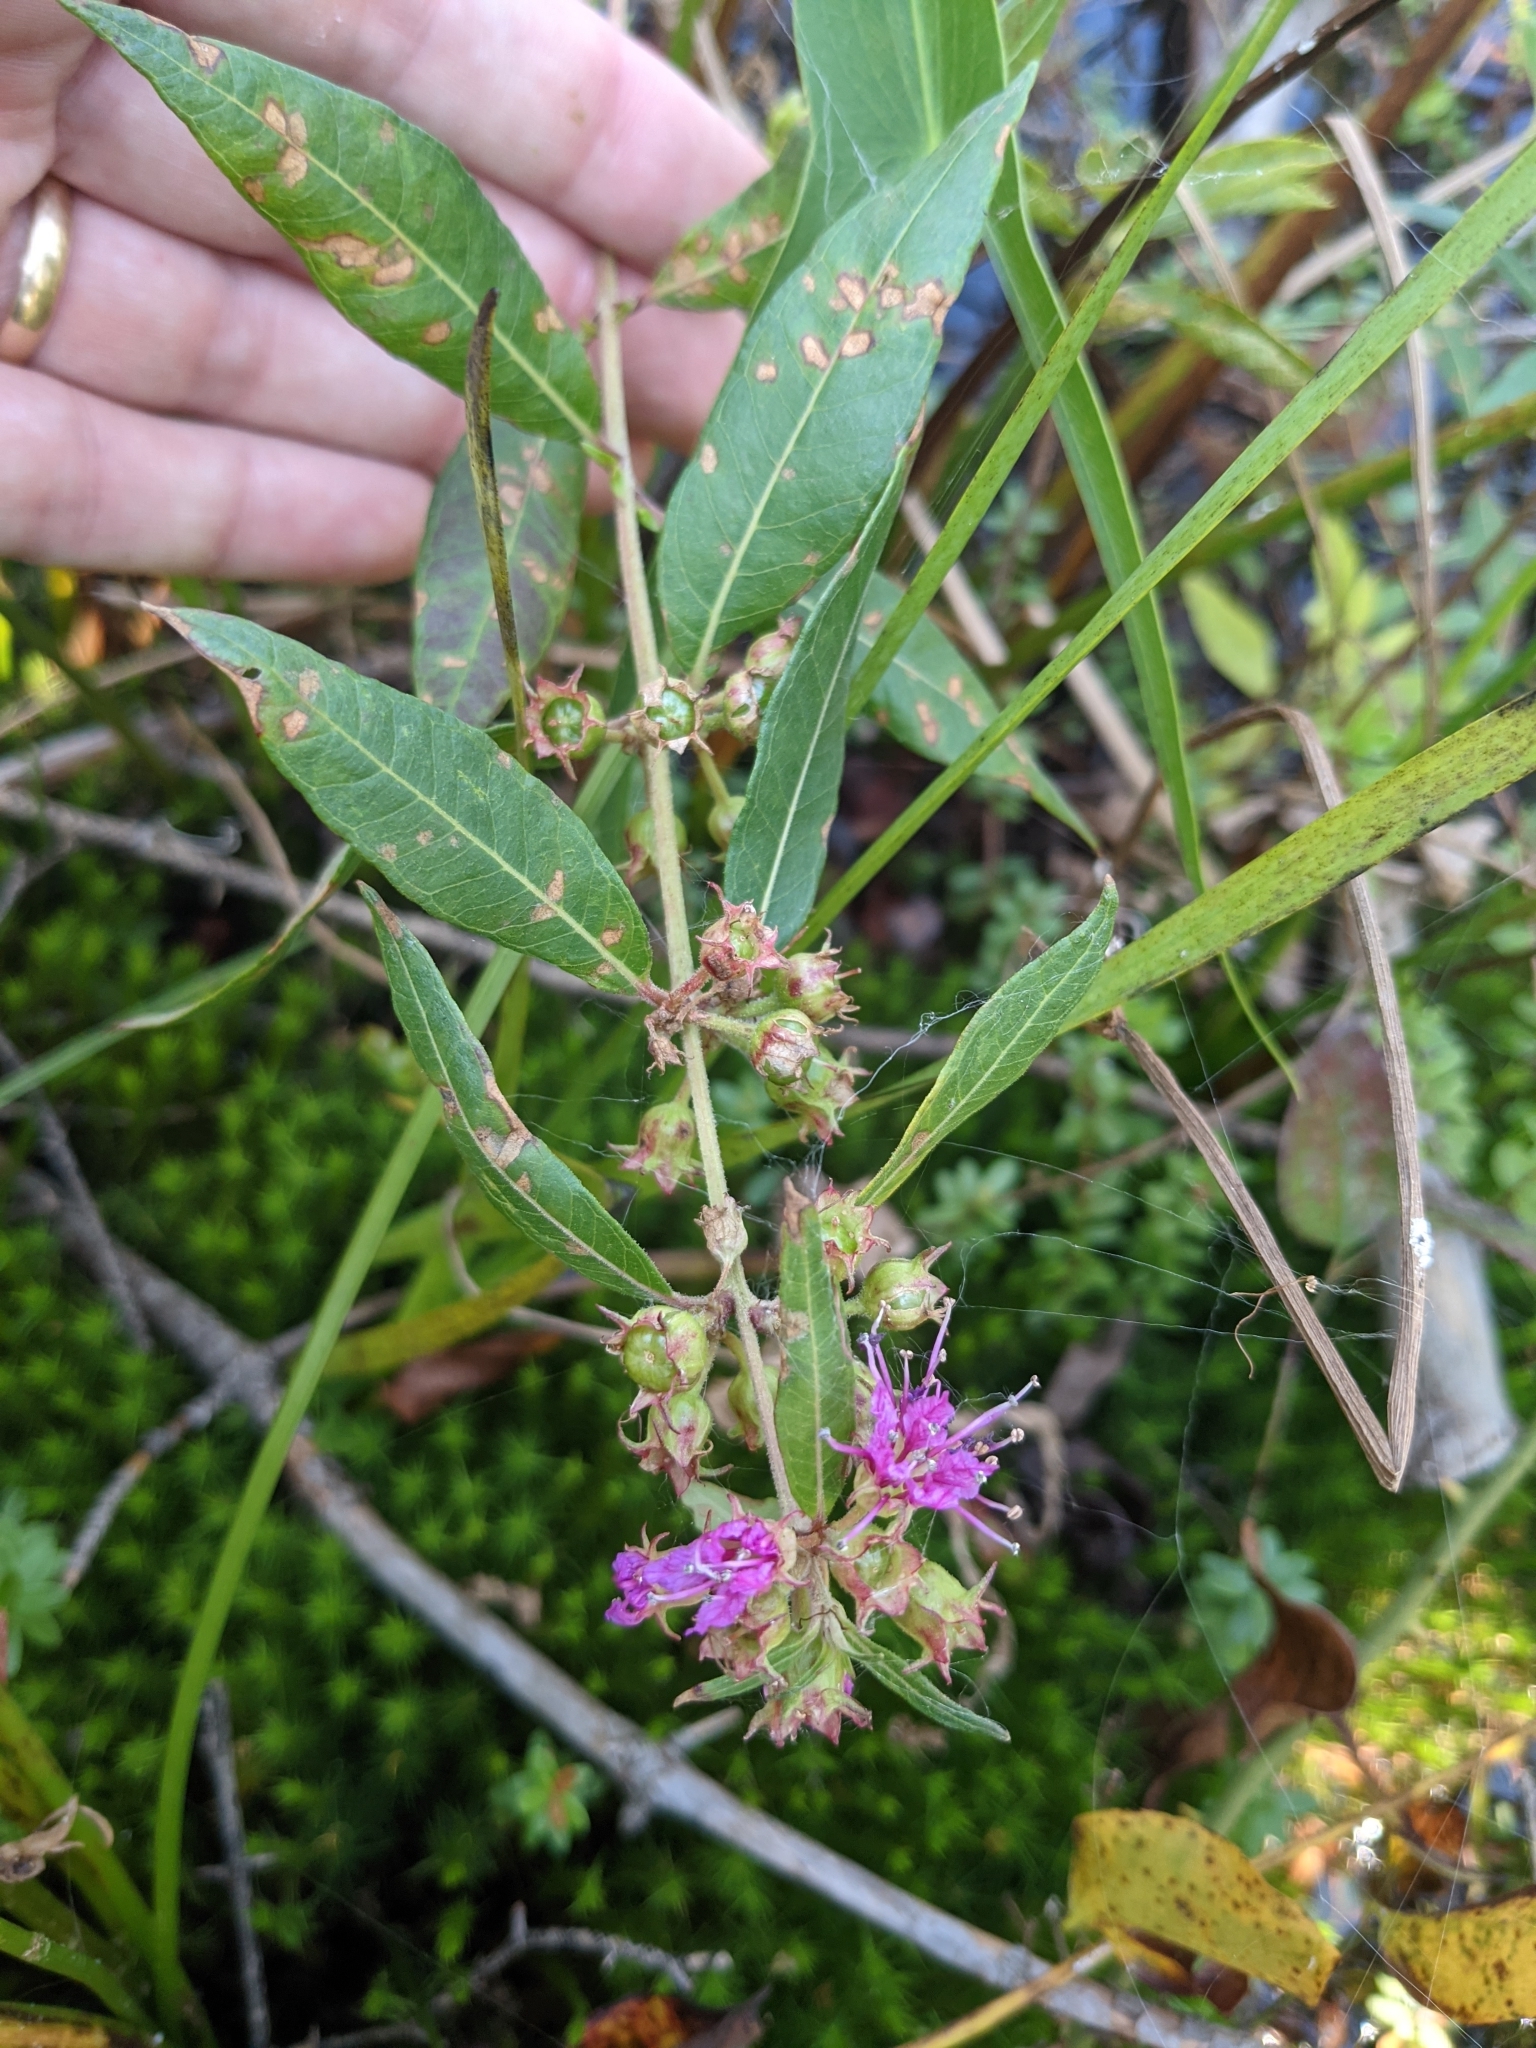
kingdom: Plantae
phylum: Tracheophyta
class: Magnoliopsida
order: Myrtales
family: Lythraceae
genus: Decodon
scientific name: Decodon verticillatus
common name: Hairy swamp loosestrife
